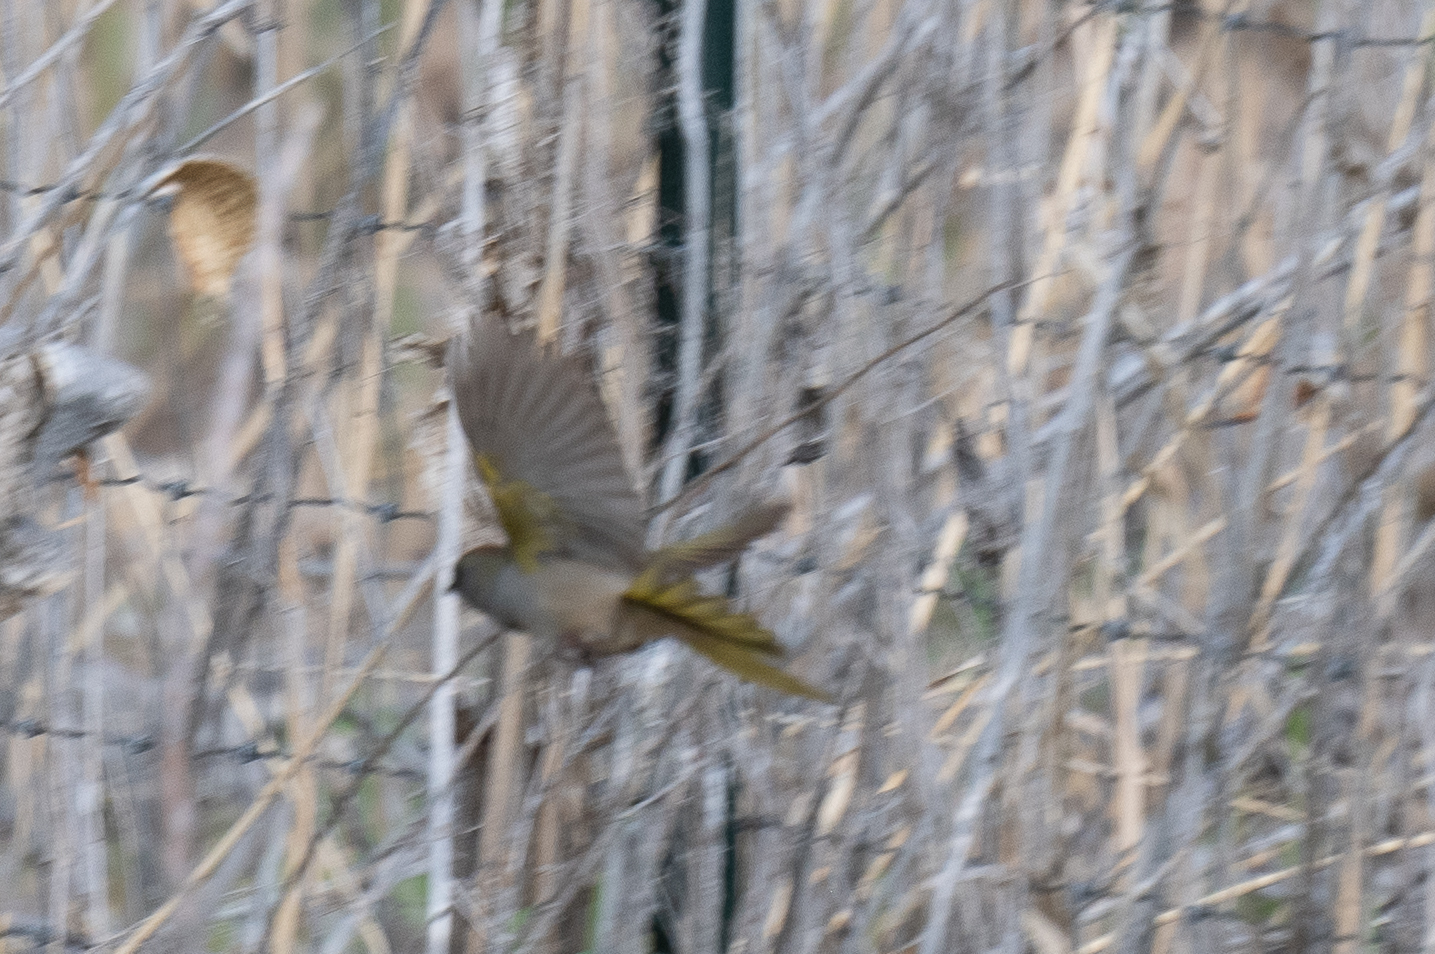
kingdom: Animalia
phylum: Chordata
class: Aves
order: Passeriformes
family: Passerellidae
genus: Pipilo
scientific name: Pipilo chlorurus
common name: Green-tailed towhee
